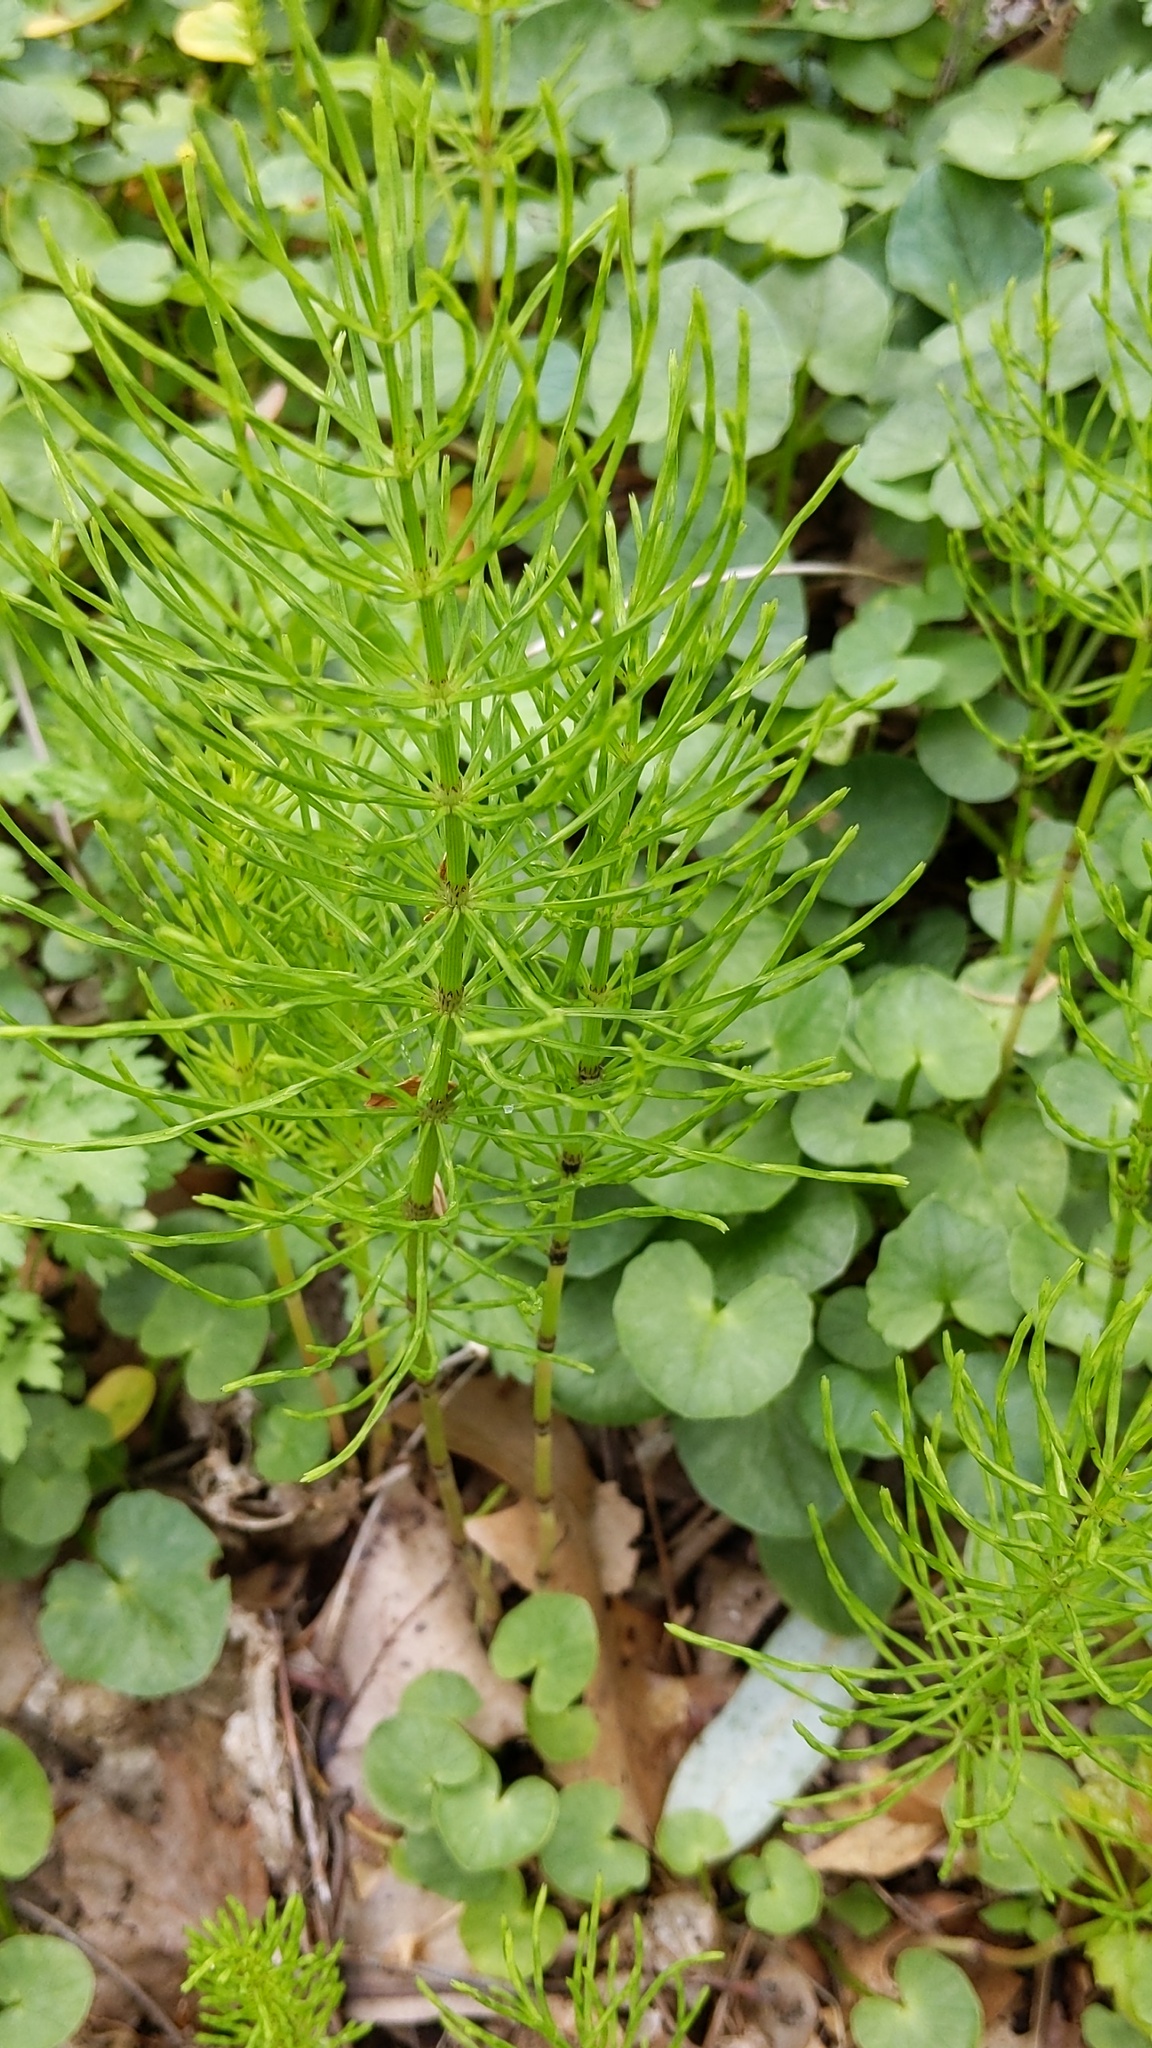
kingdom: Plantae
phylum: Tracheophyta
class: Polypodiopsida
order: Equisetales
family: Equisetaceae
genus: Equisetum
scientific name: Equisetum arvense
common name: Field horsetail
